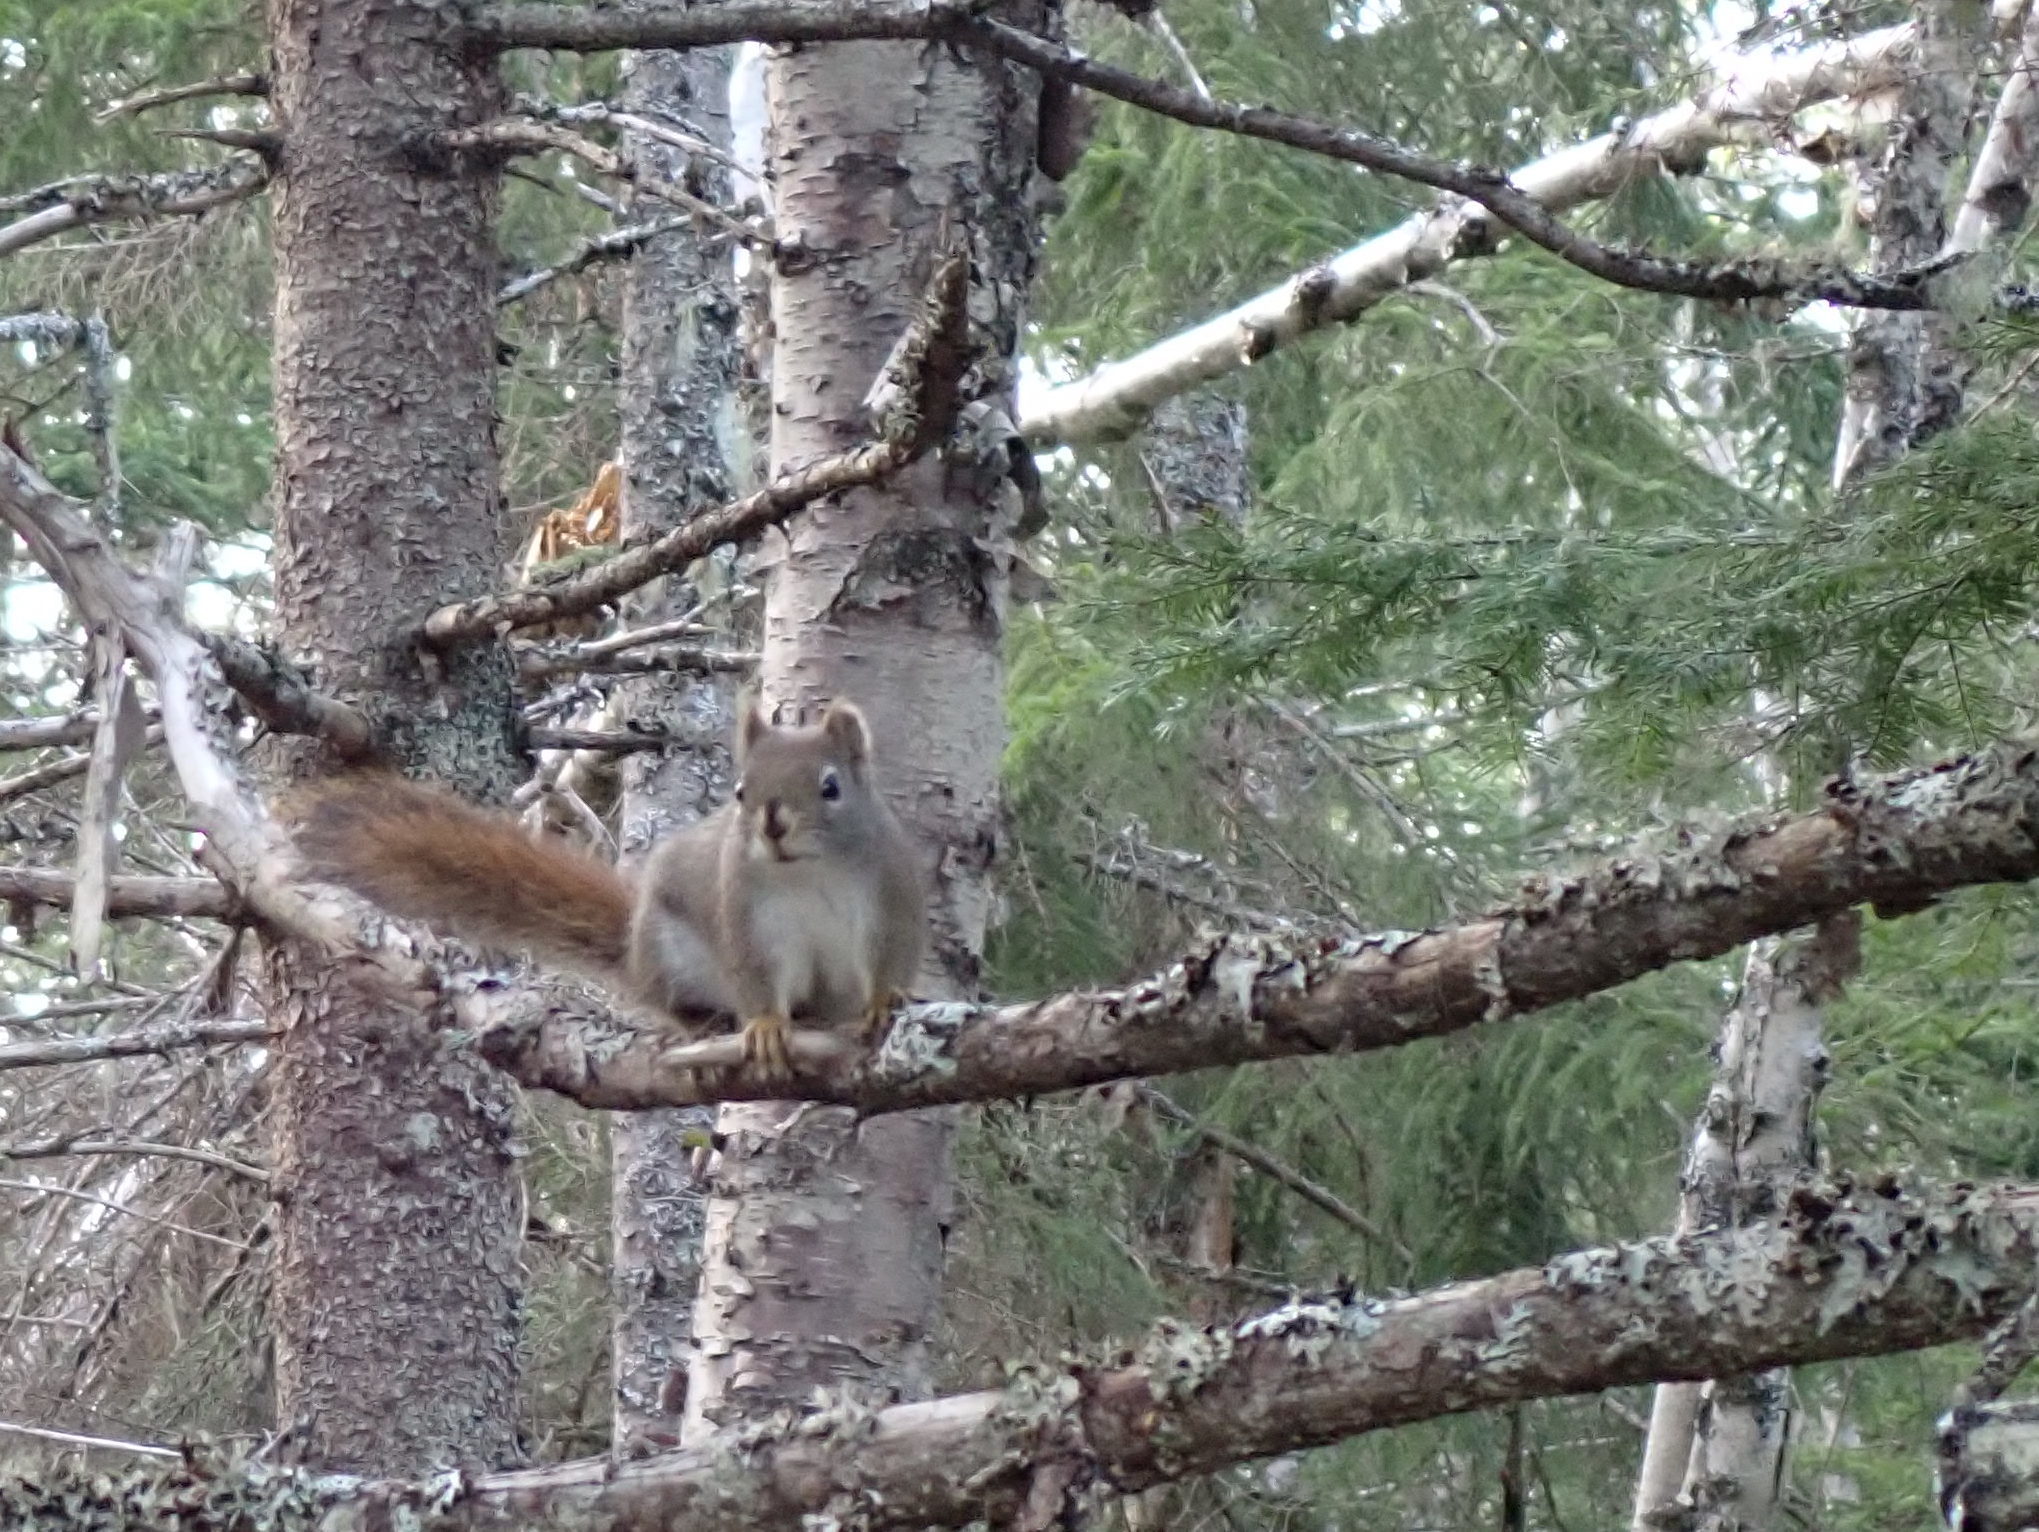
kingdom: Animalia
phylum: Chordata
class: Mammalia
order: Rodentia
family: Sciuridae
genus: Tamiasciurus
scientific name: Tamiasciurus hudsonicus
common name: Red squirrel
